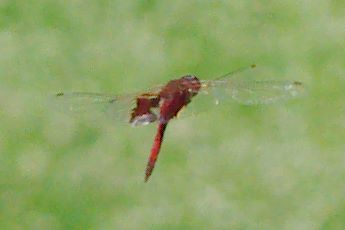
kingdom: Animalia
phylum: Arthropoda
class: Insecta
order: Odonata
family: Libellulidae
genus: Tramea
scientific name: Tramea onusta
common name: Red saddlebags
